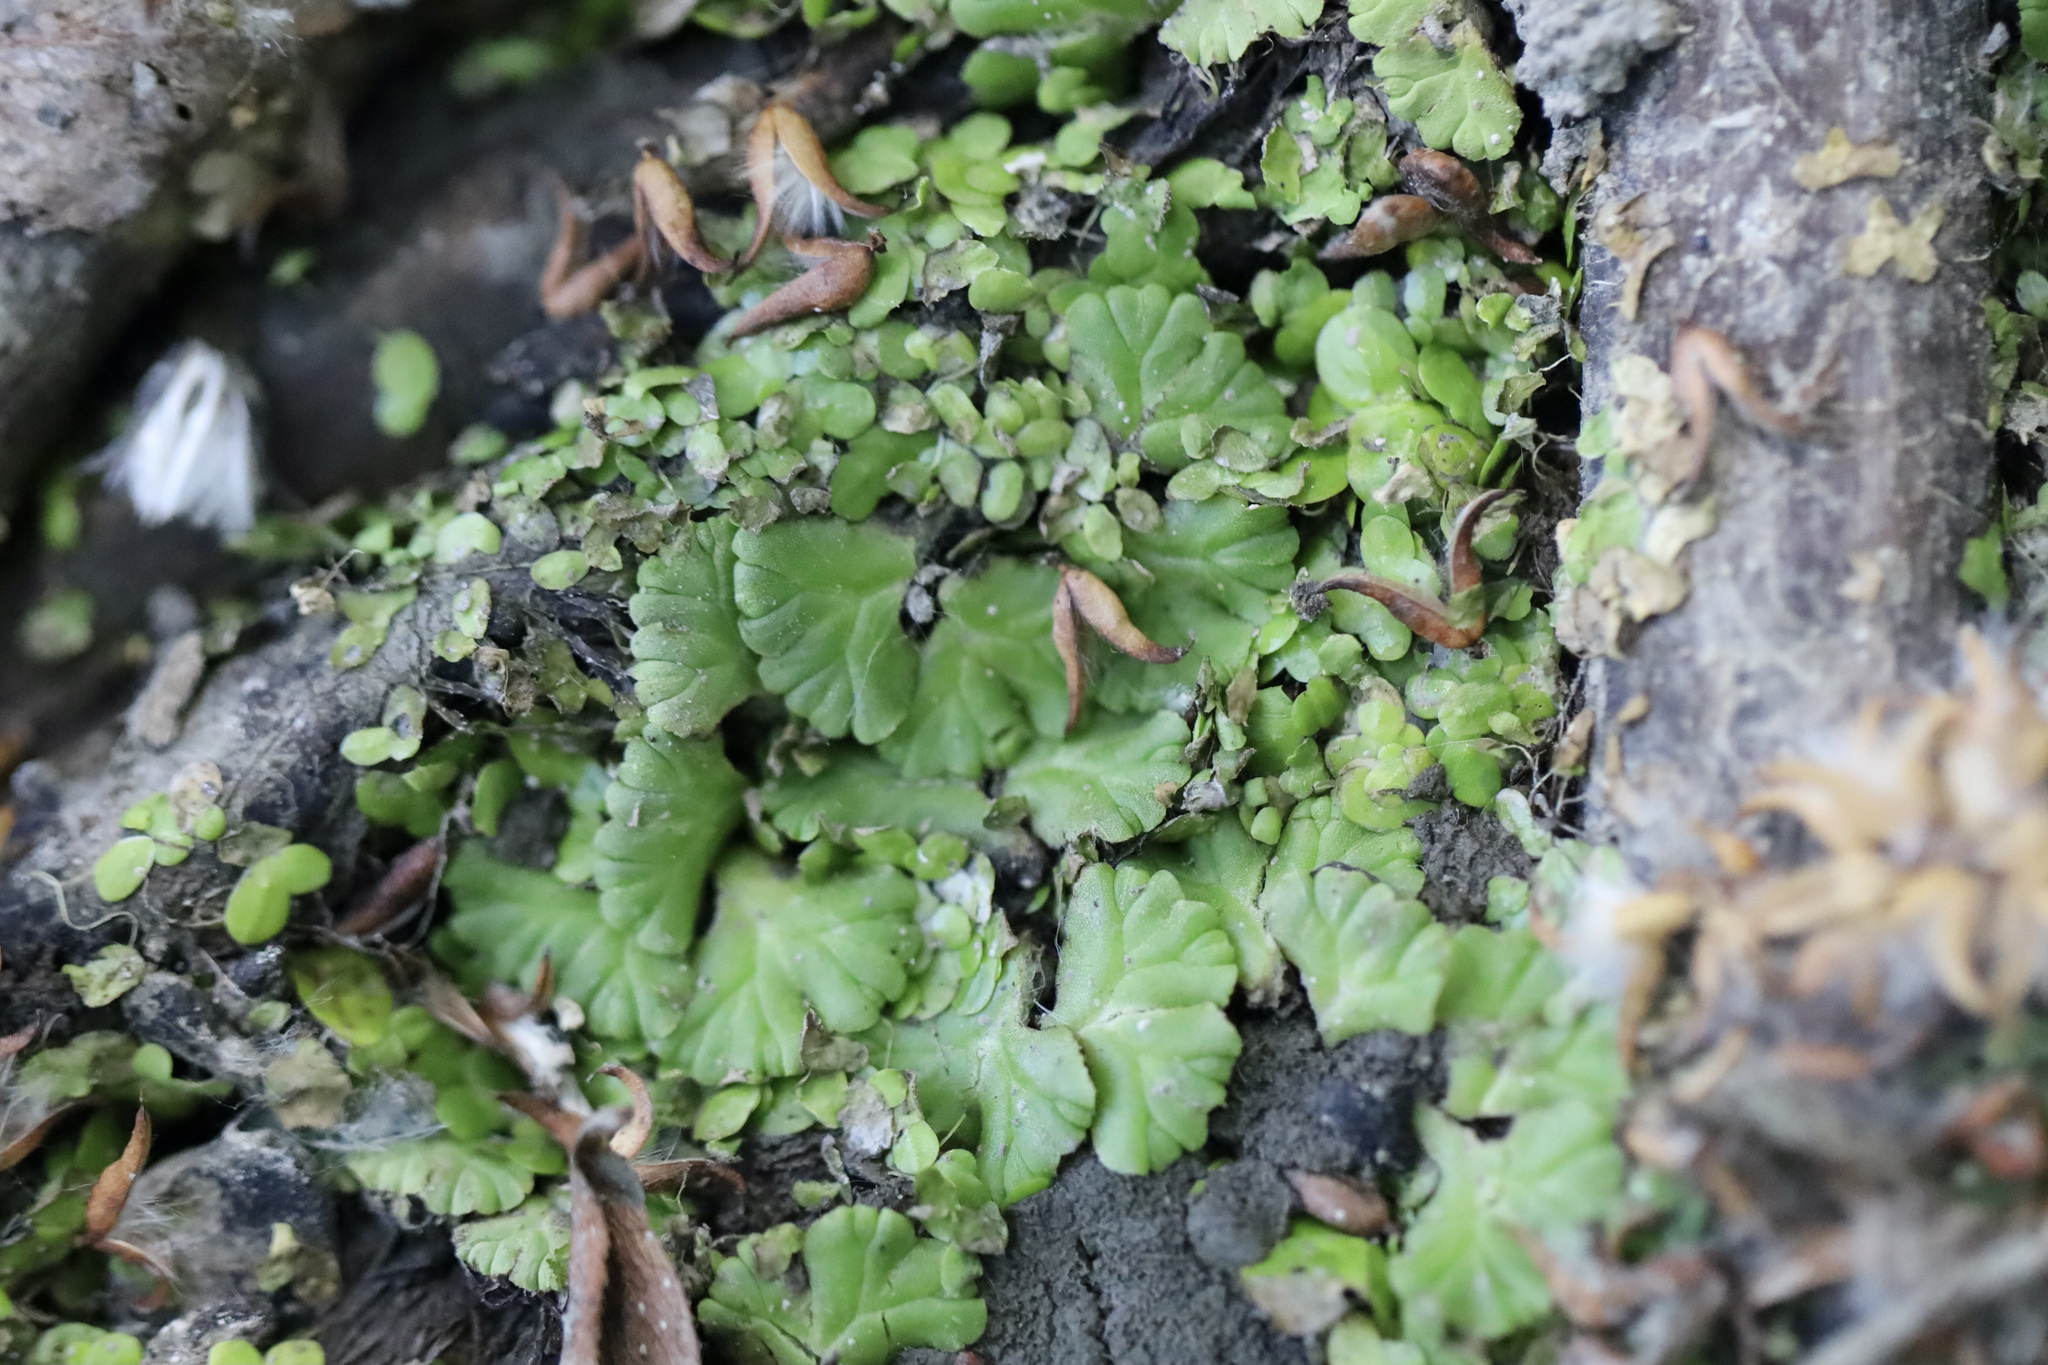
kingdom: Plantae
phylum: Marchantiophyta
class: Marchantiopsida
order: Marchantiales
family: Ricciaceae
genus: Ricciocarpos
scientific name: Ricciocarpos natans
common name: Purple-fringed liverwort
